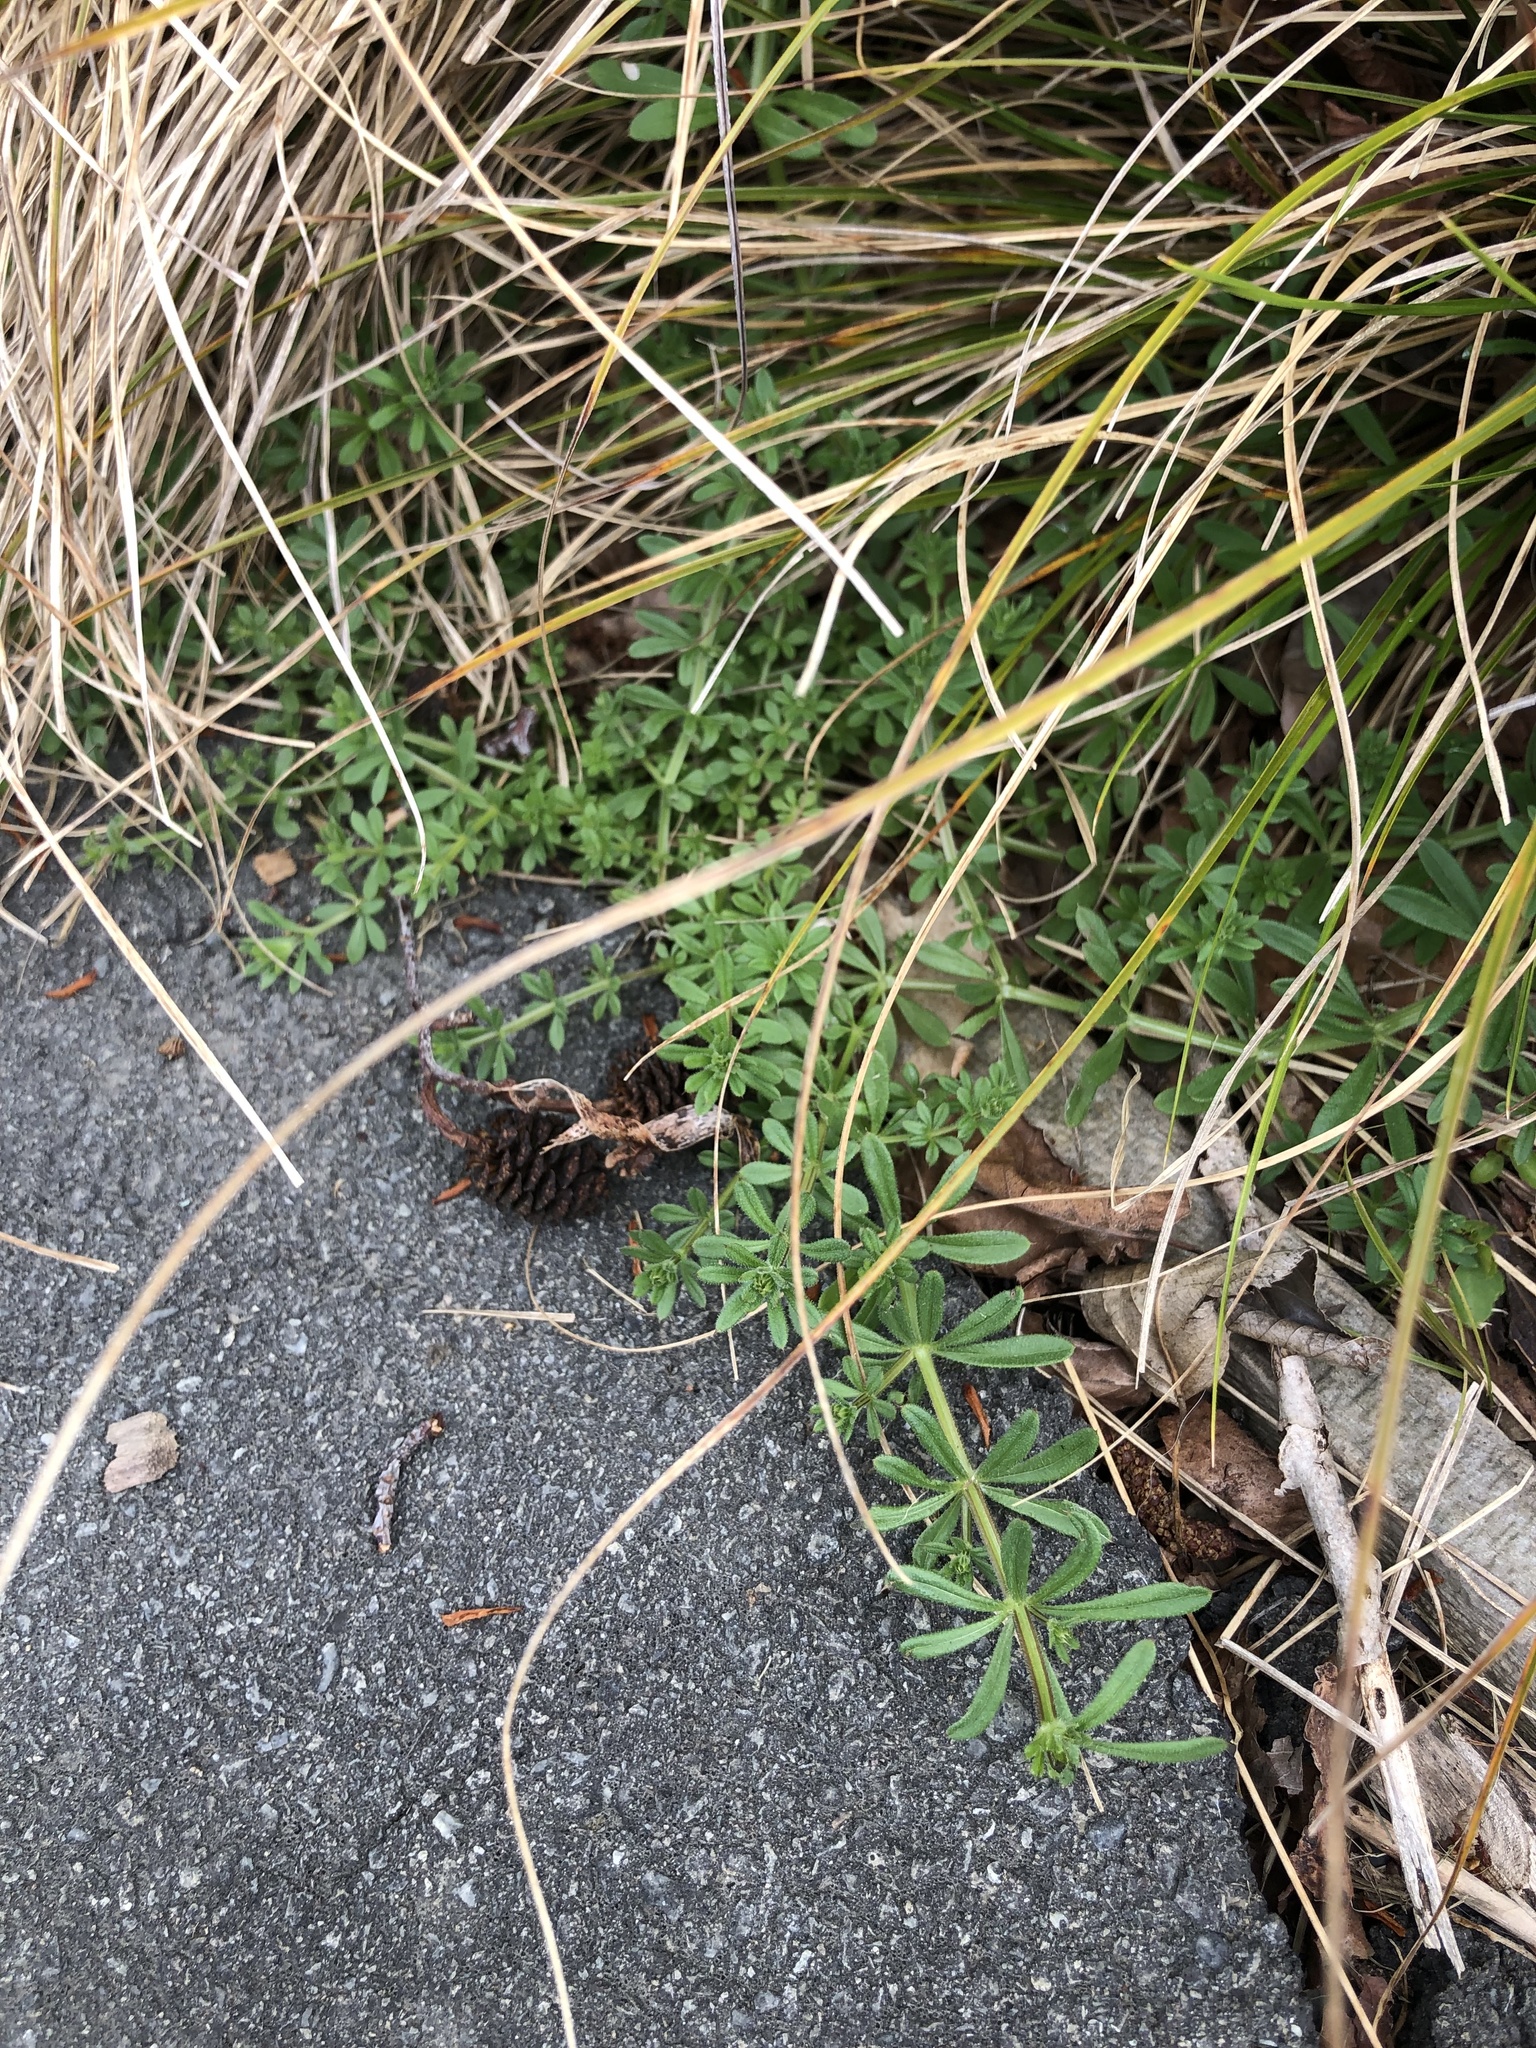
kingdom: Plantae
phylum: Tracheophyta
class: Magnoliopsida
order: Gentianales
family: Rubiaceae
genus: Galium
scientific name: Galium aparine
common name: Cleavers
